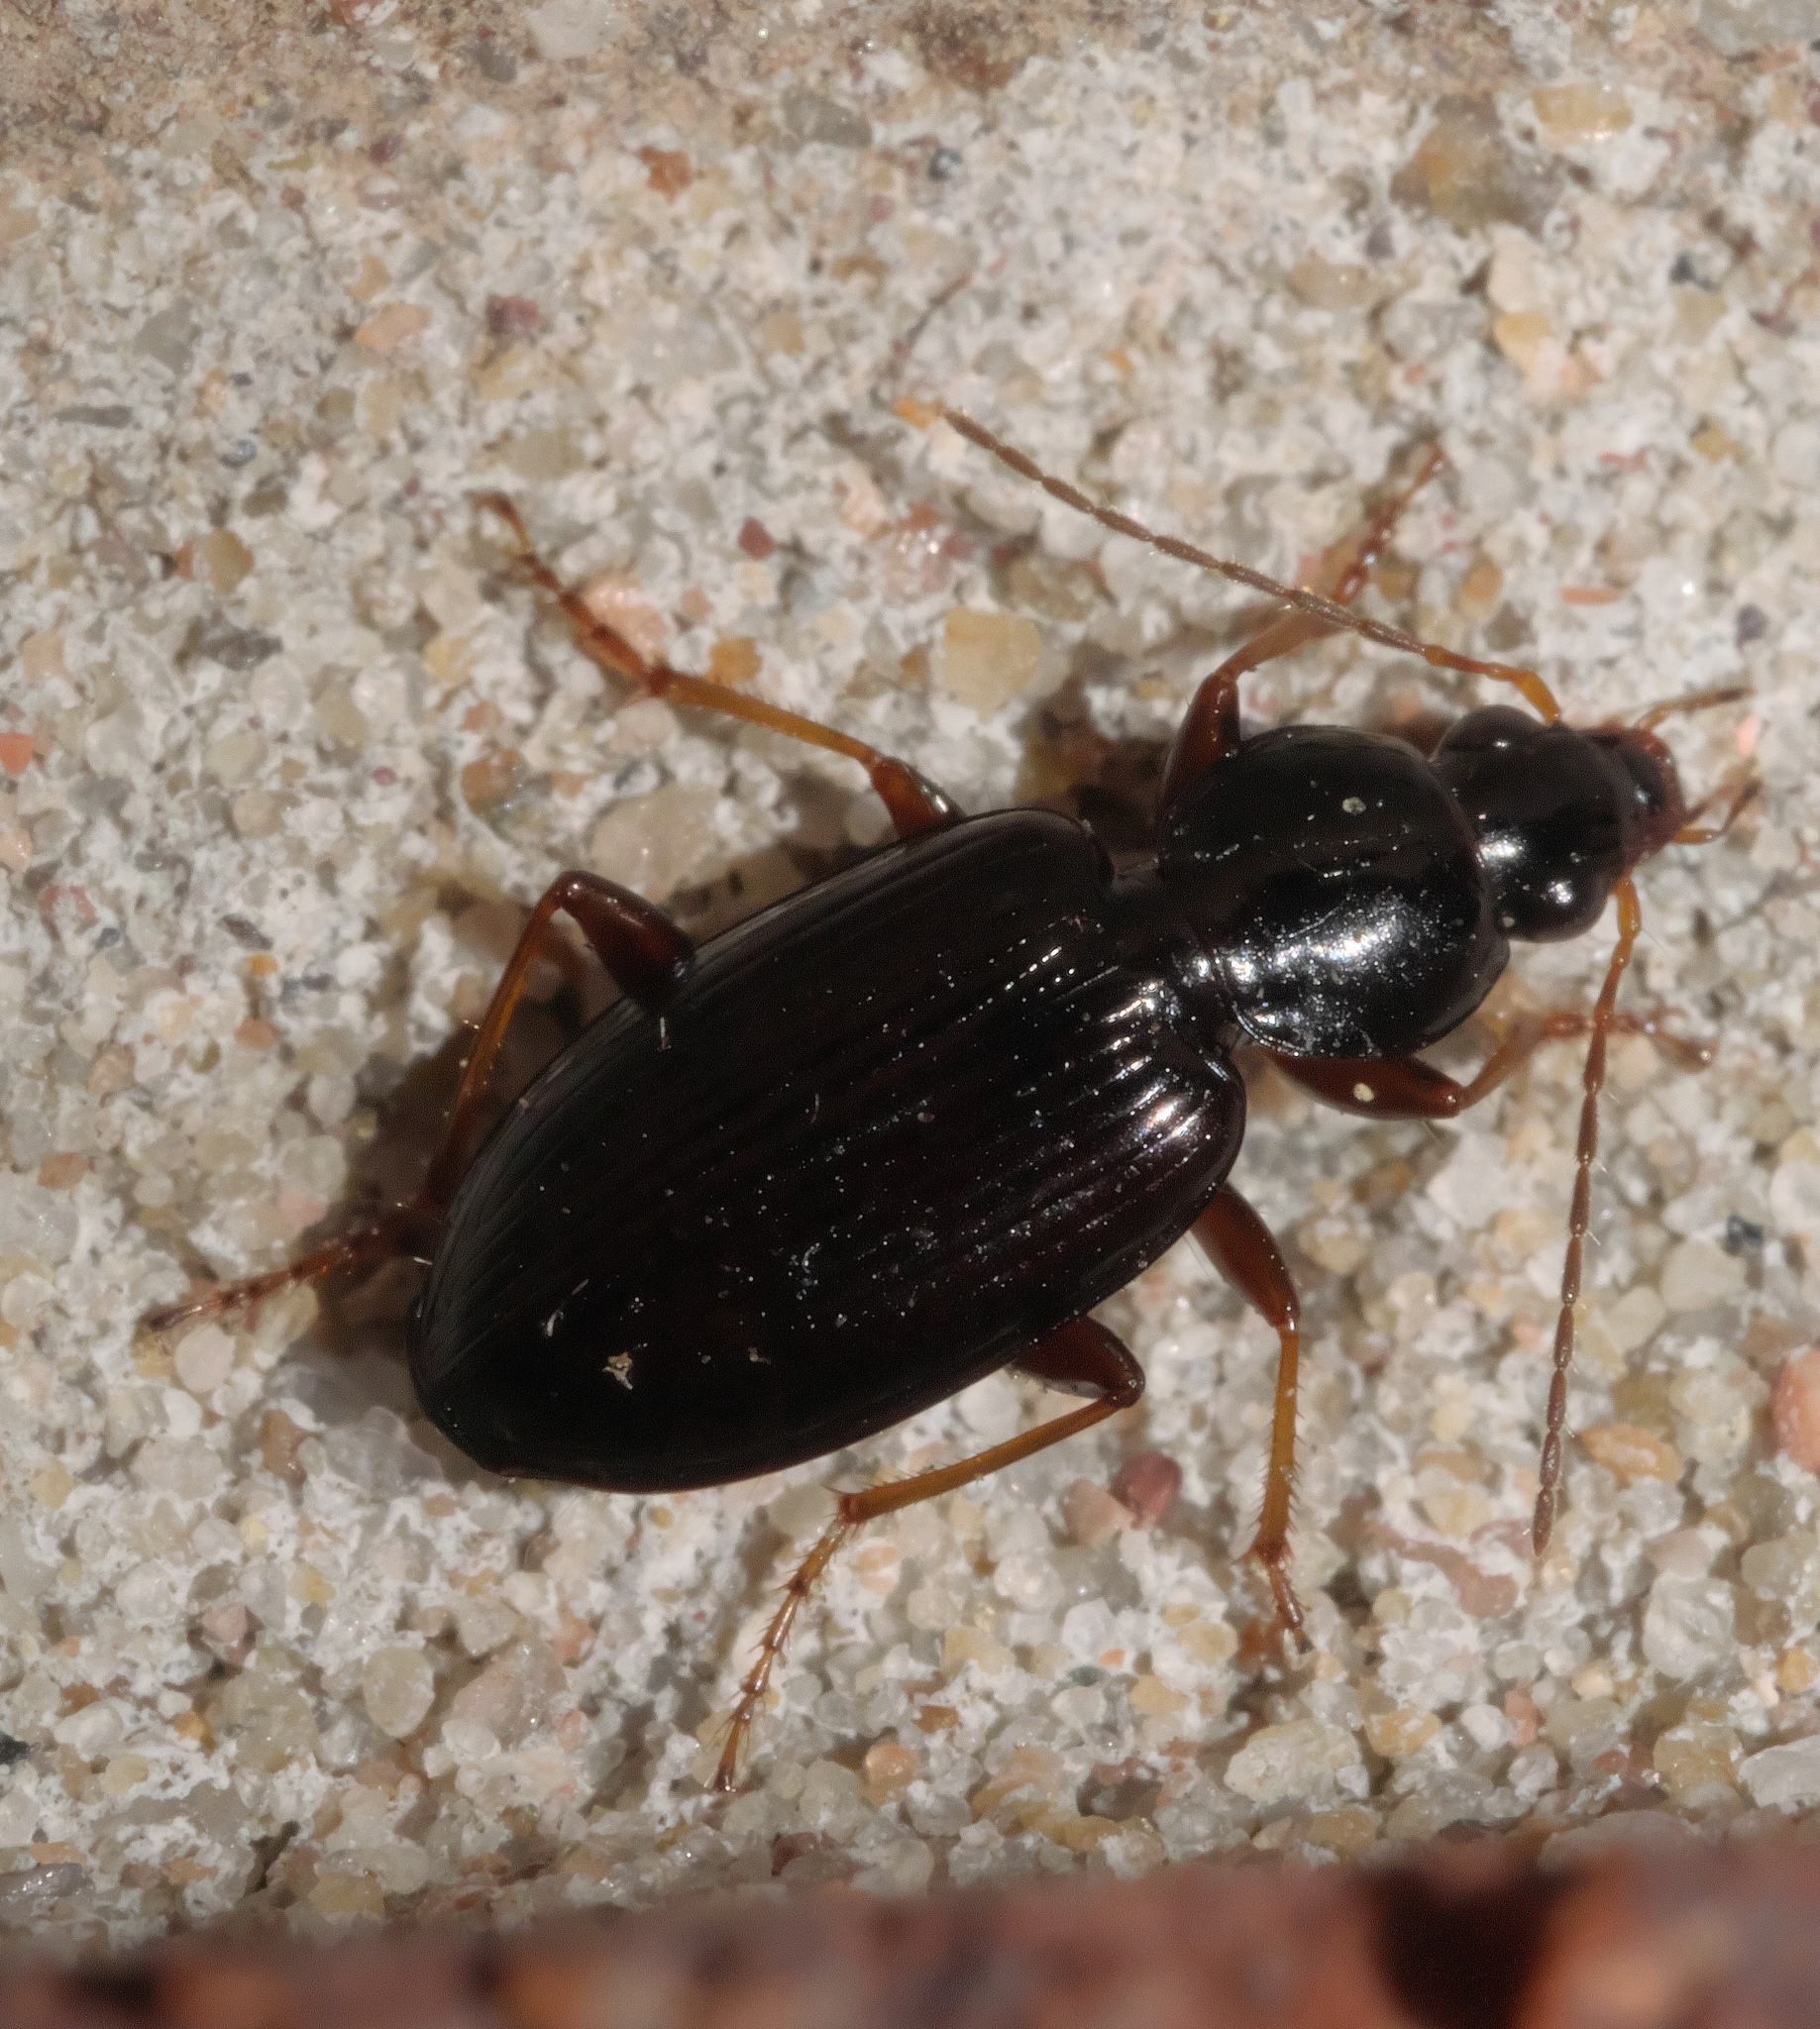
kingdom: Animalia
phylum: Arthropoda
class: Insecta
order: Coleoptera
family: Carabidae
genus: Agonum
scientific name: Agonum punctiforme
